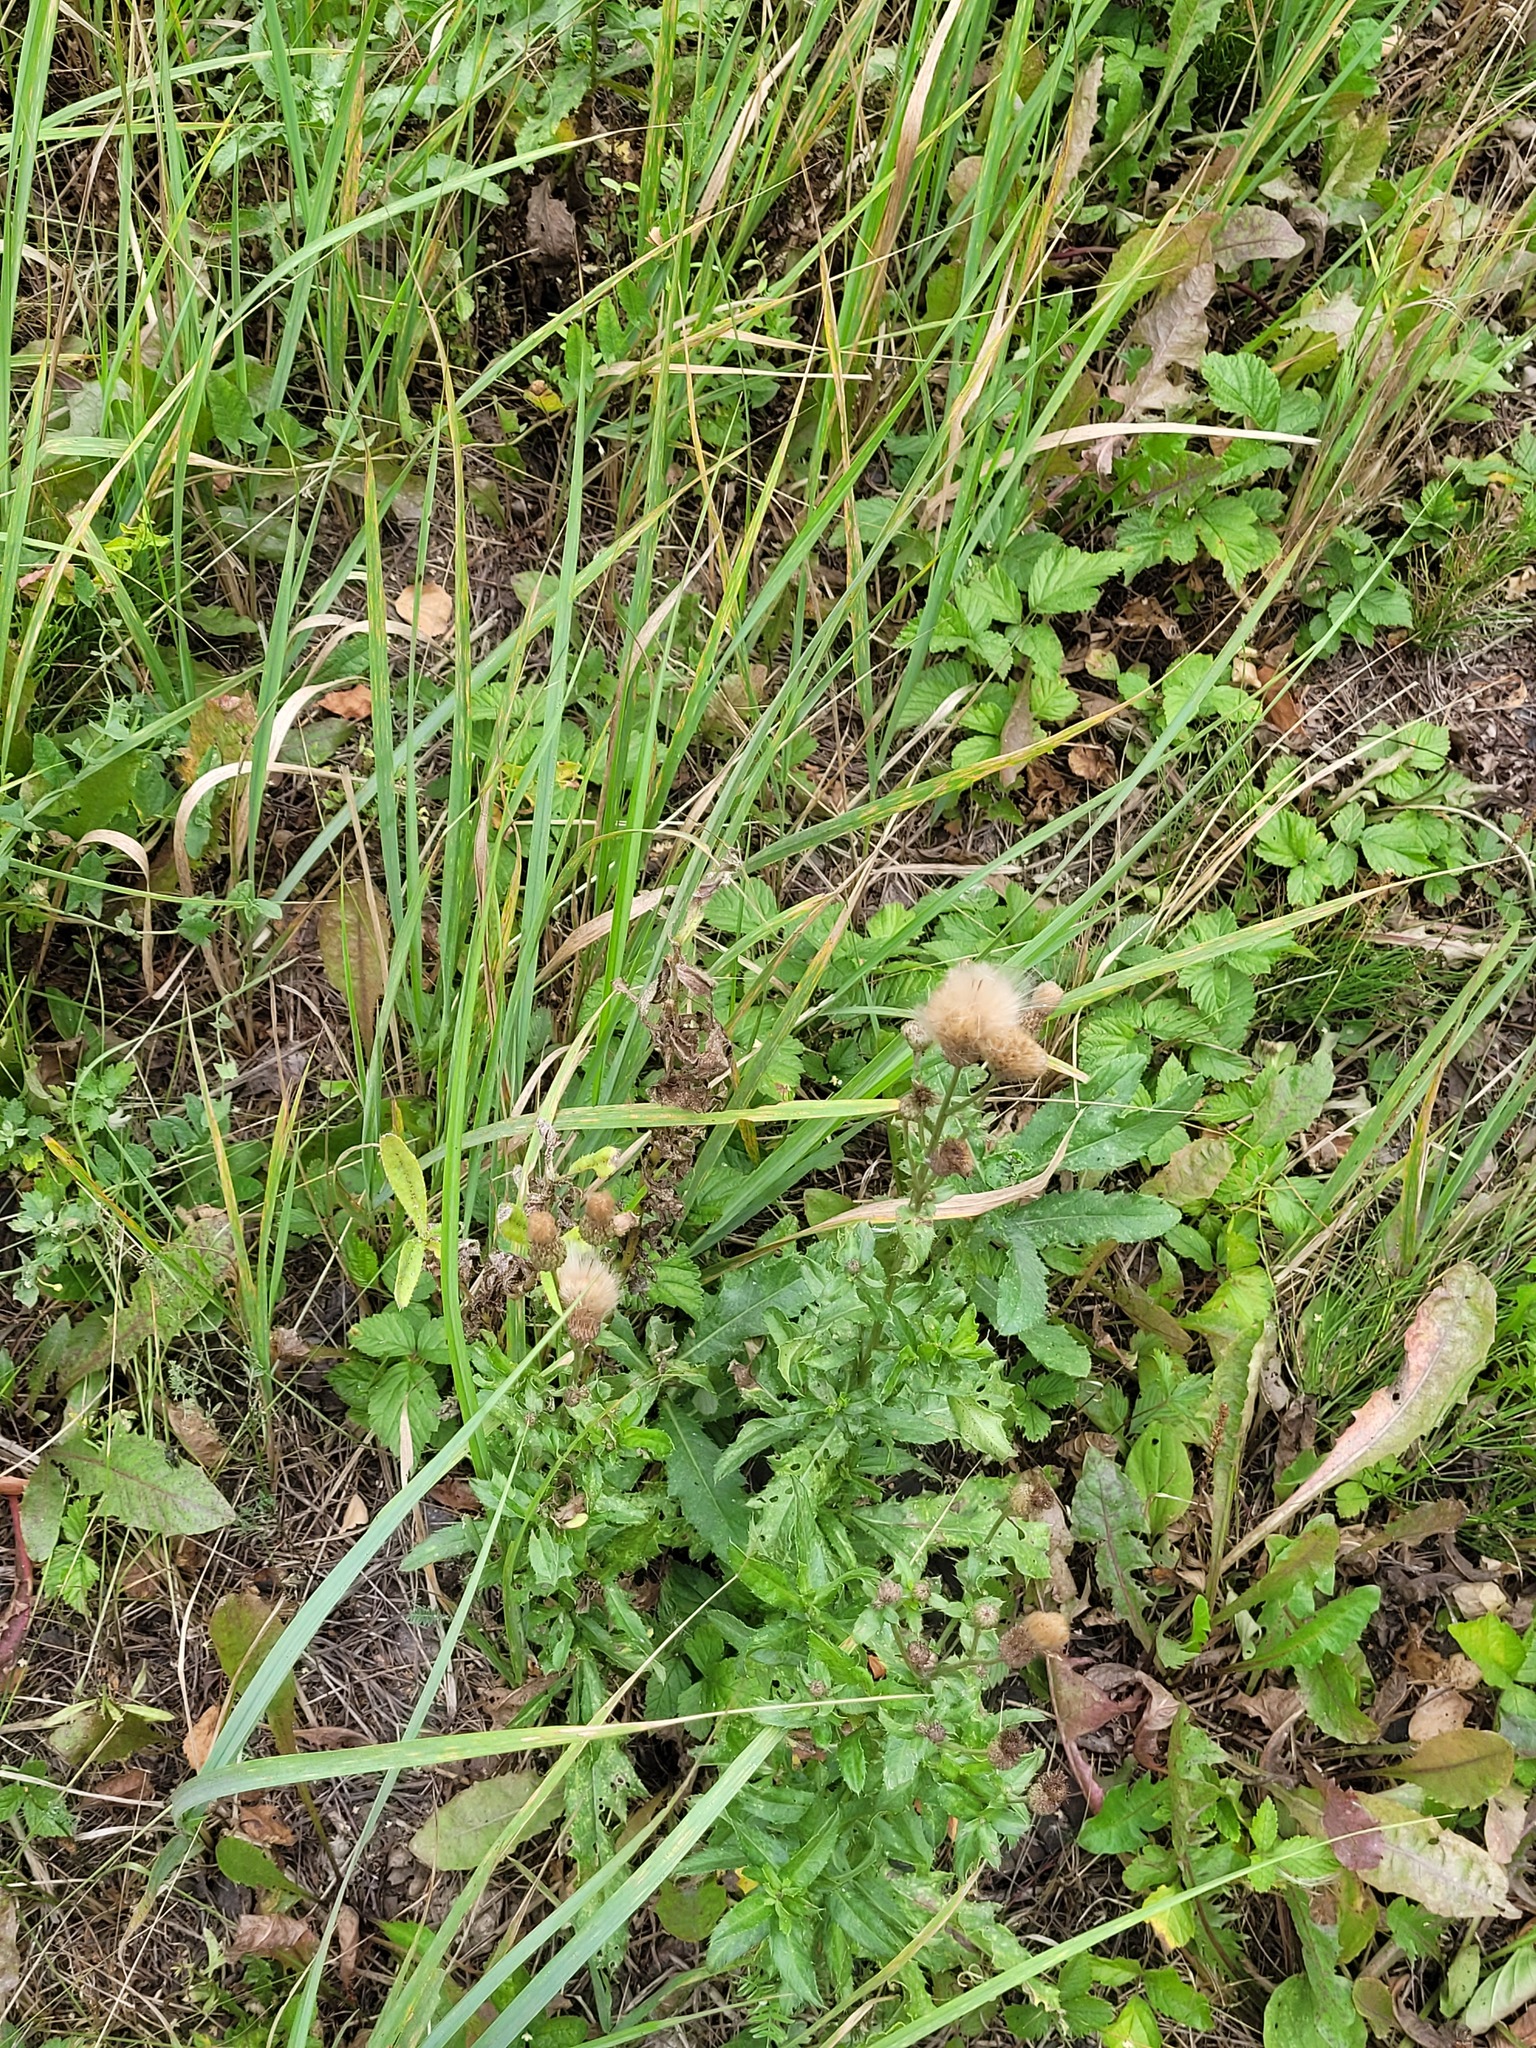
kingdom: Plantae
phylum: Tracheophyta
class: Magnoliopsida
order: Asterales
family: Asteraceae
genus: Cirsium
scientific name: Cirsium arvense
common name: Creeping thistle
